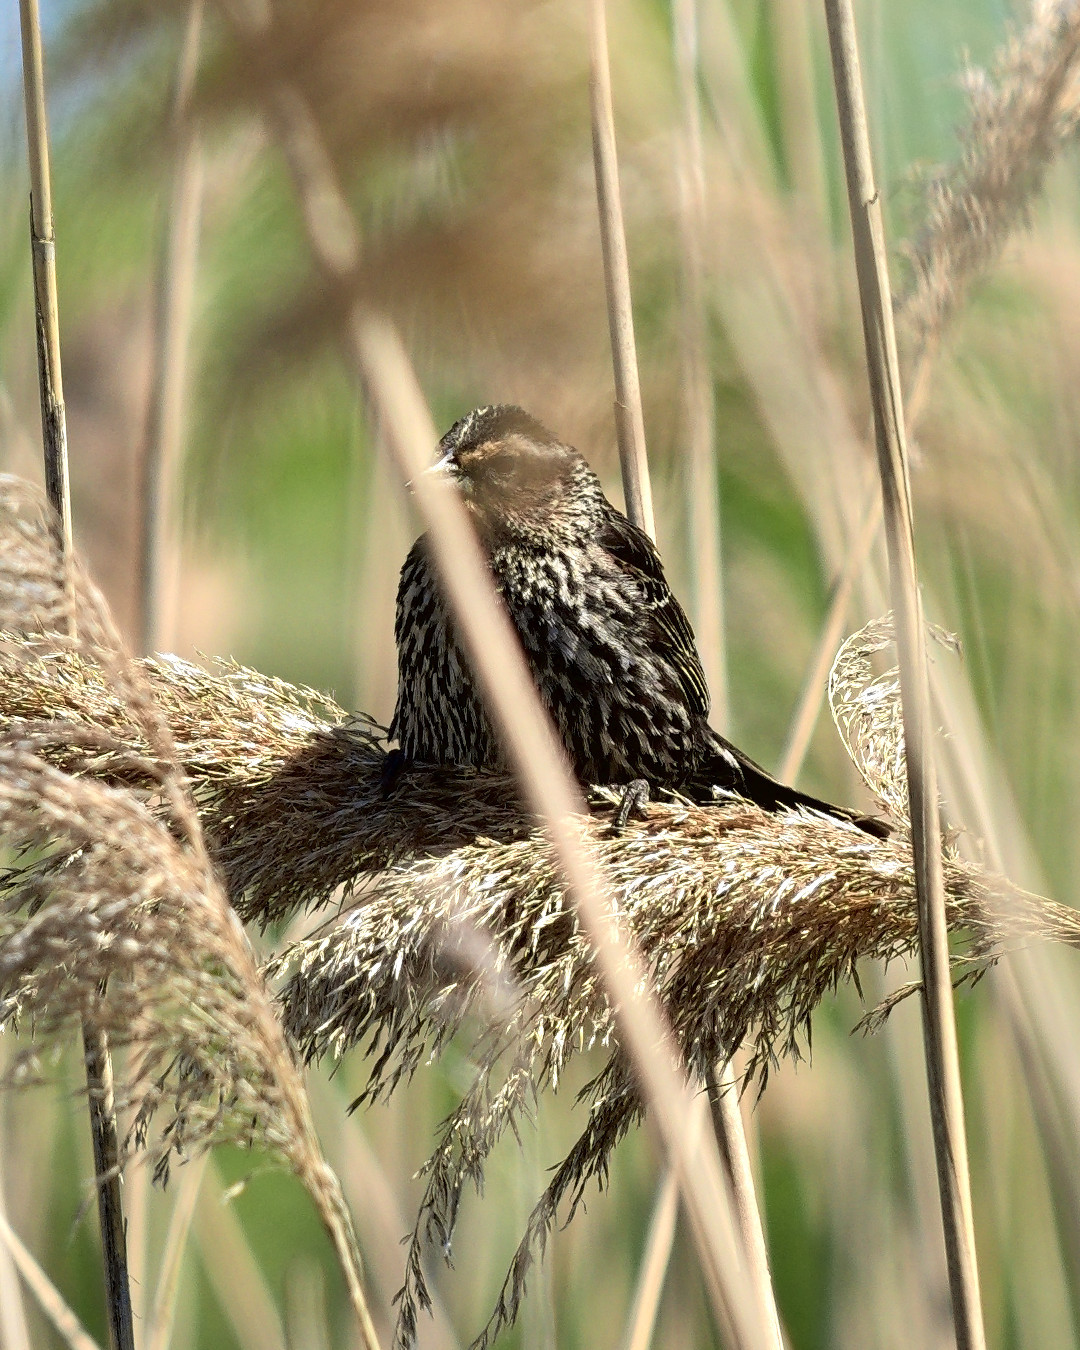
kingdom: Animalia
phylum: Chordata
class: Aves
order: Passeriformes
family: Icteridae
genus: Agelaius
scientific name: Agelaius phoeniceus
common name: Red-winged blackbird
